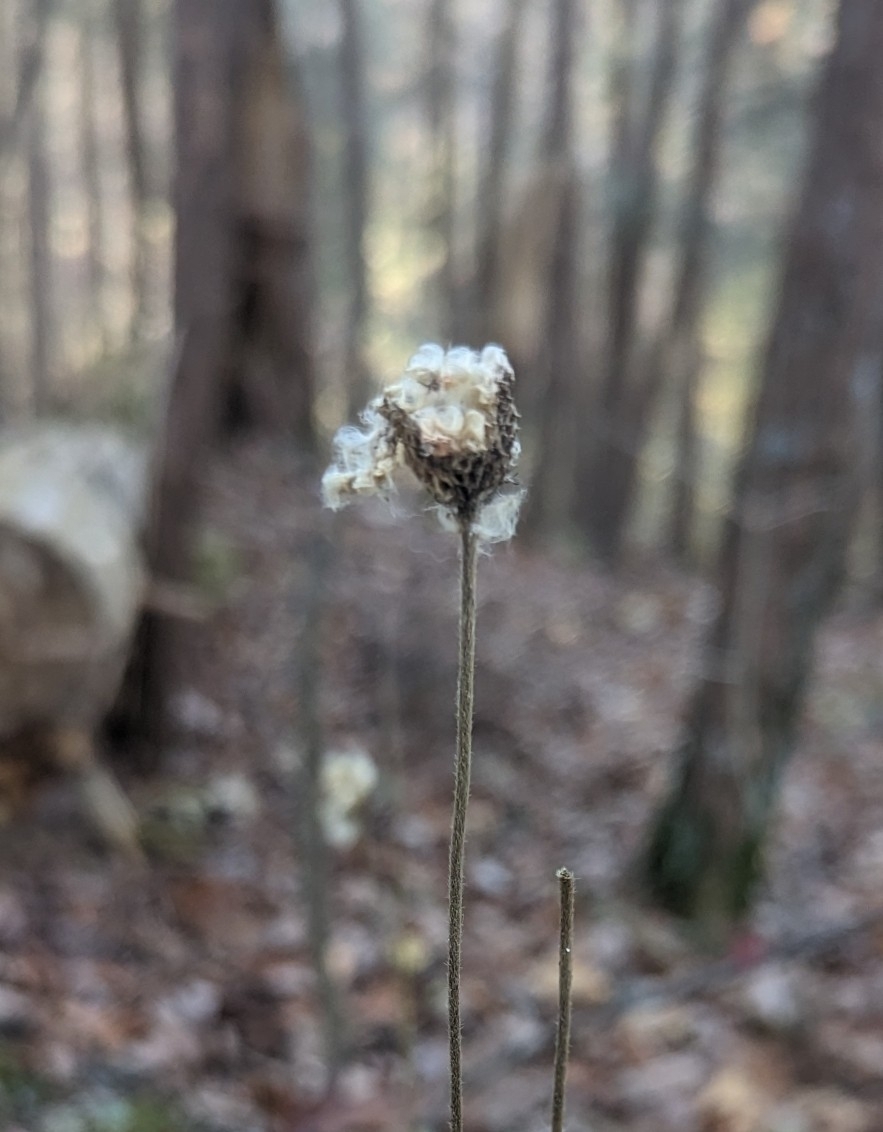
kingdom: Plantae
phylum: Tracheophyta
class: Magnoliopsida
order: Ranunculales
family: Ranunculaceae
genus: Anemone
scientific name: Anemone virginiana
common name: Tall anemone
